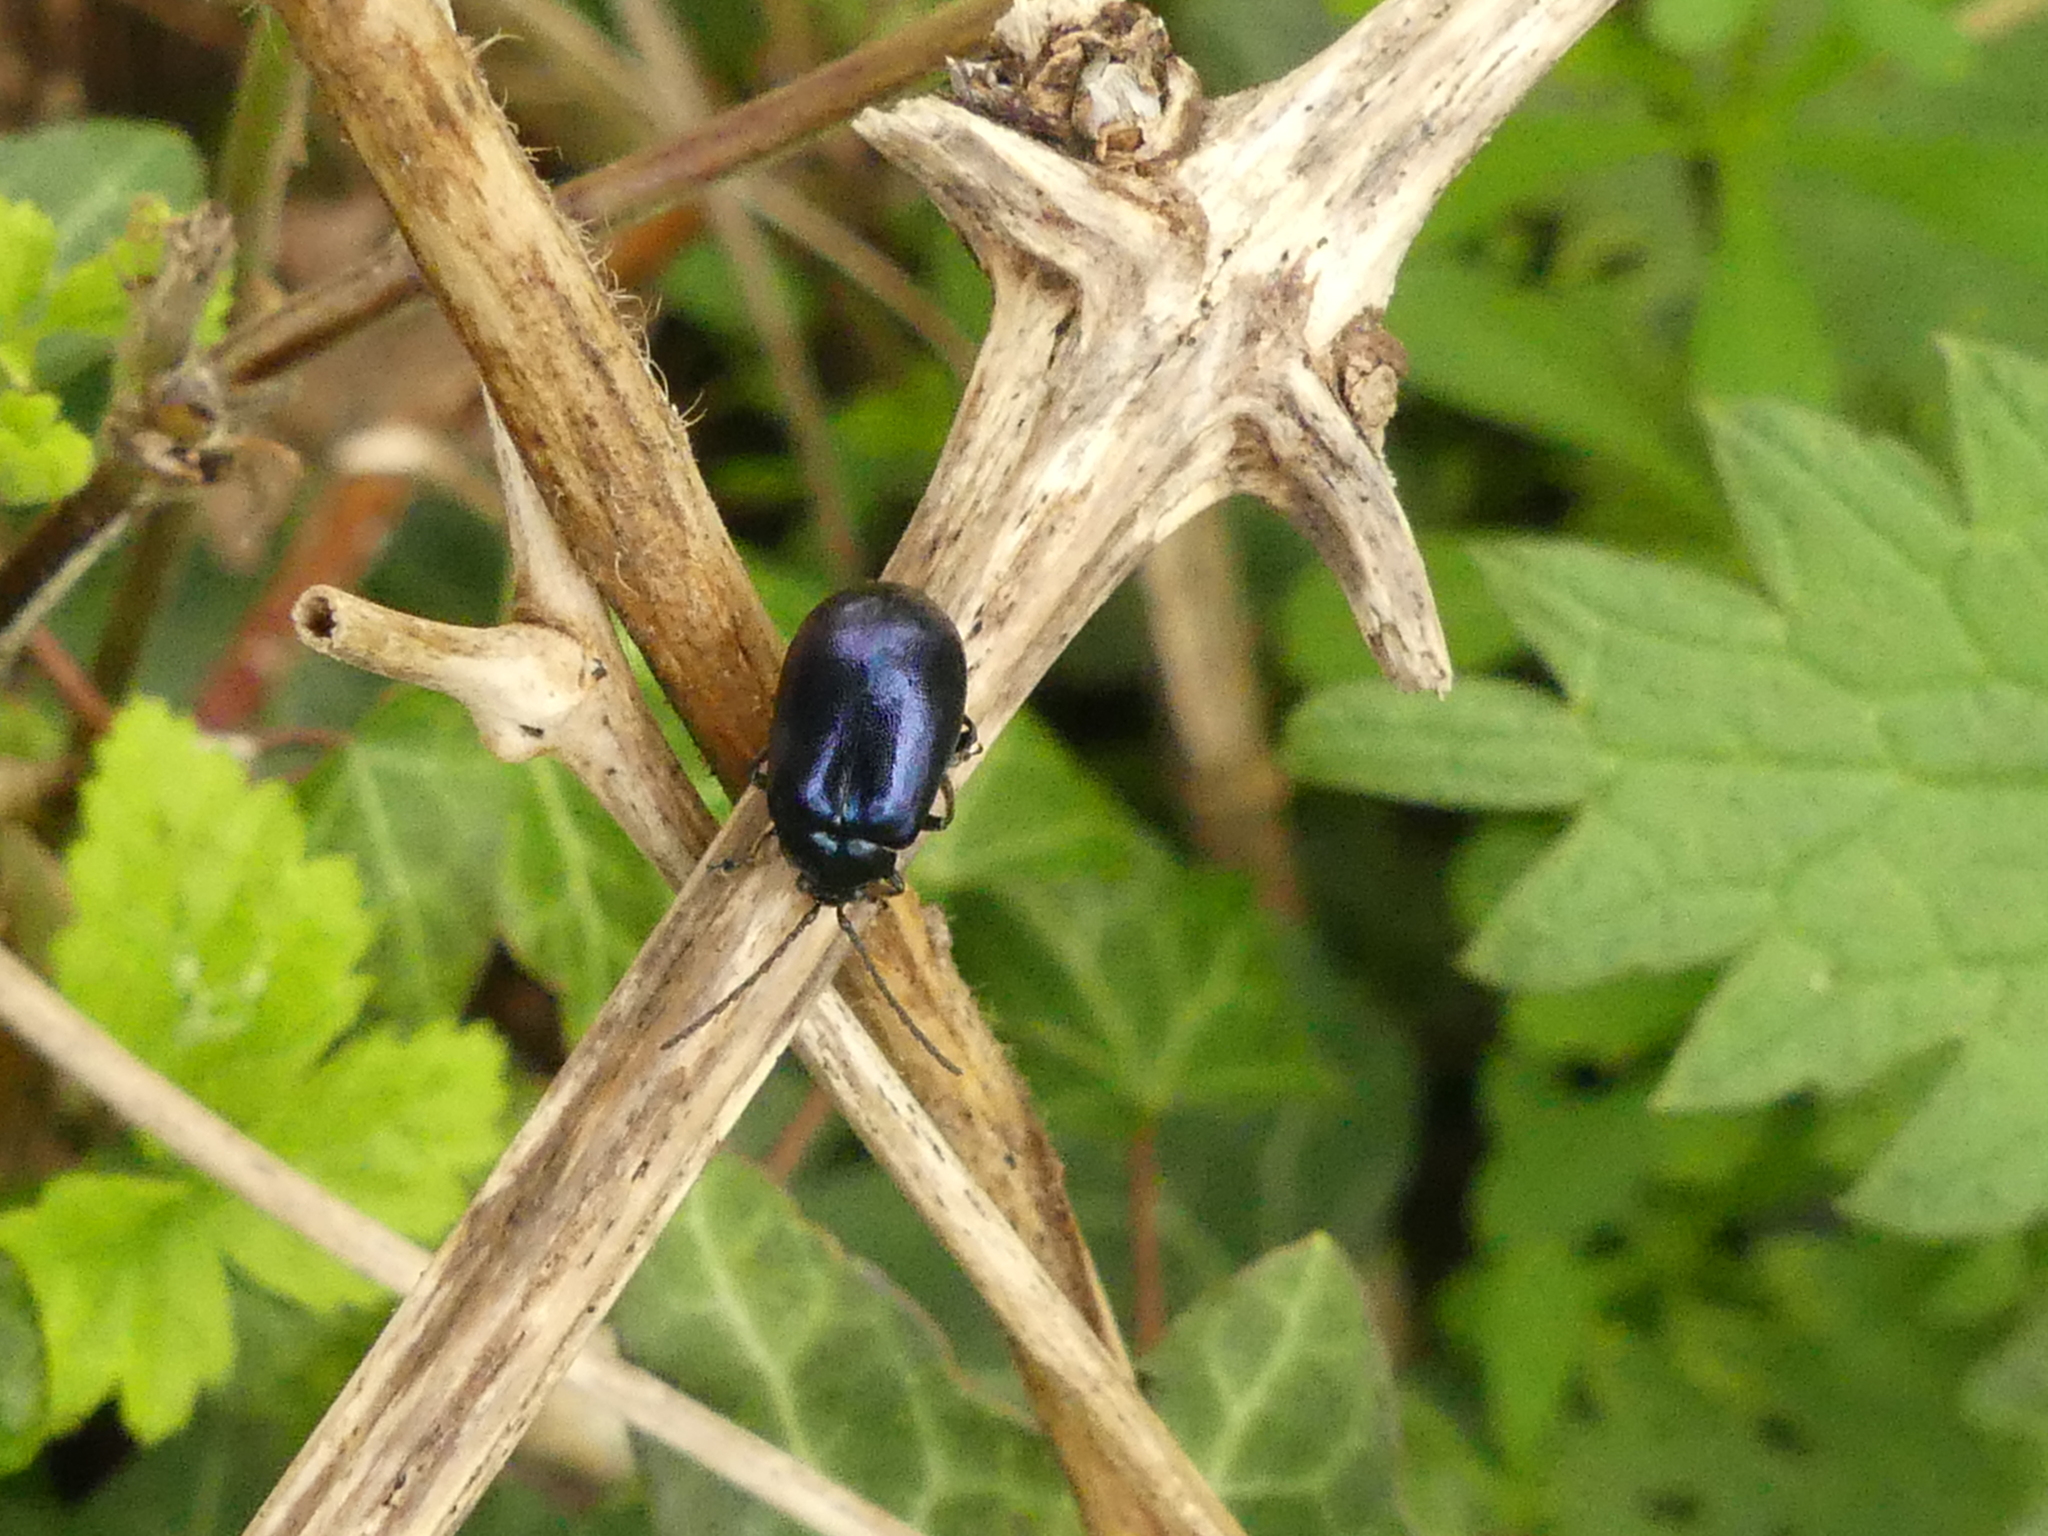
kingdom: Animalia
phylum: Arthropoda
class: Insecta
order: Coleoptera
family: Chrysomelidae
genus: Agelastica
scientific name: Agelastica alni
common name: Alder leaf beetle
